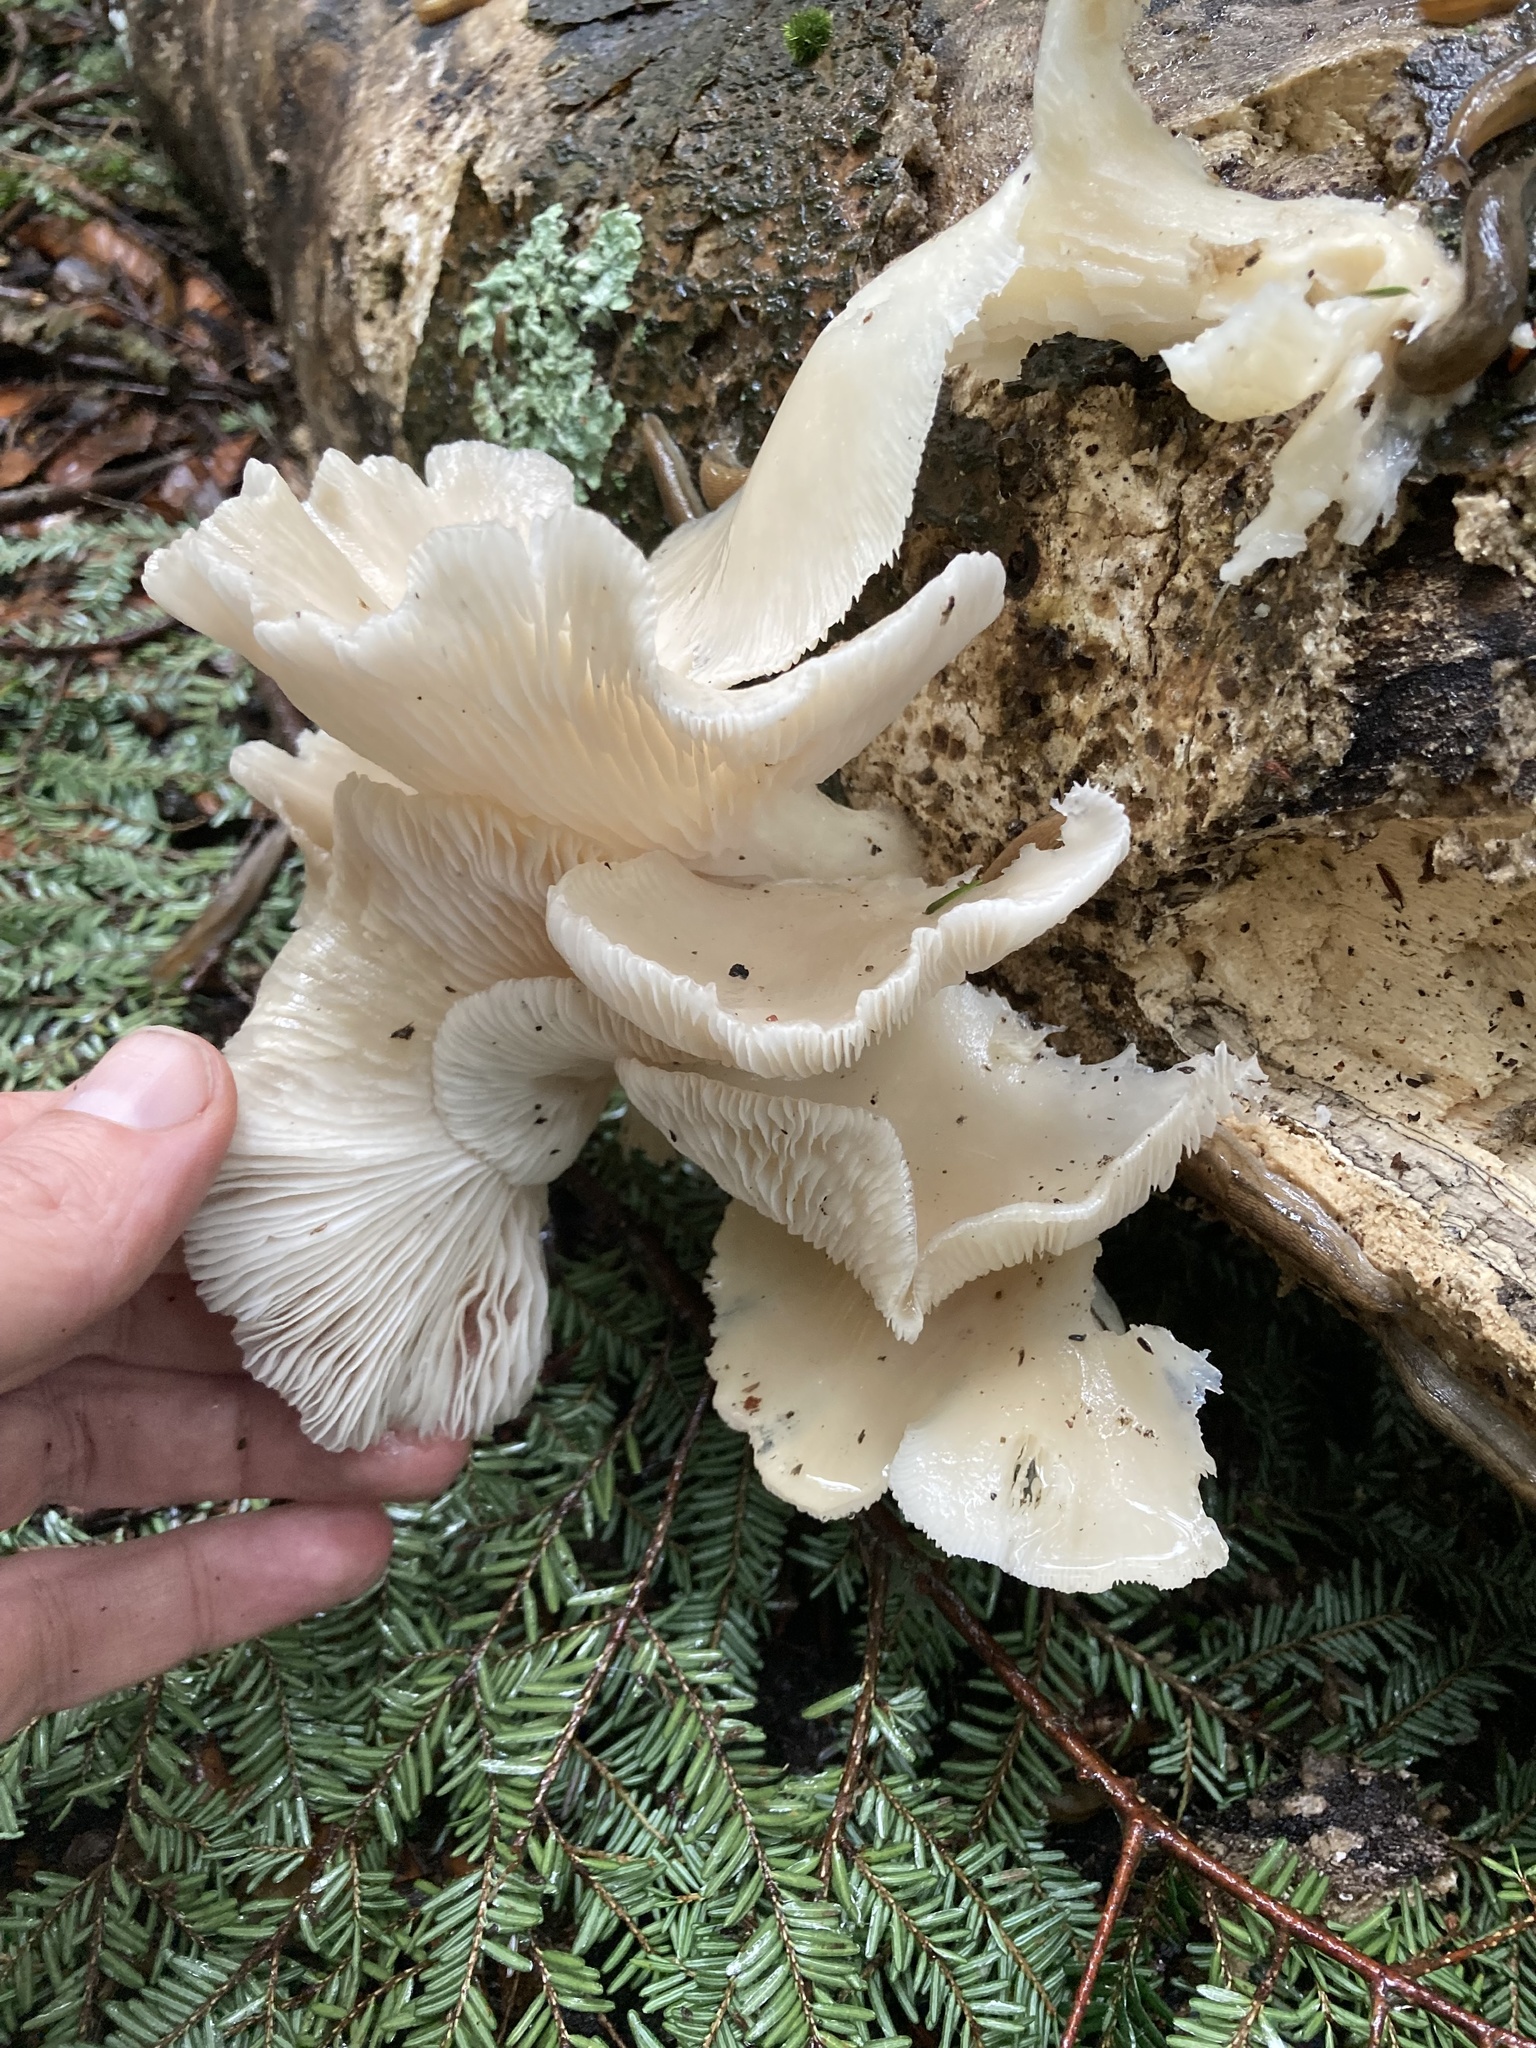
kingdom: Fungi
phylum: Basidiomycota
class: Agaricomycetes
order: Agaricales
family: Pleurotaceae
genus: Pleurotus
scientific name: Pleurotus pulmonarius
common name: Pale oyster
